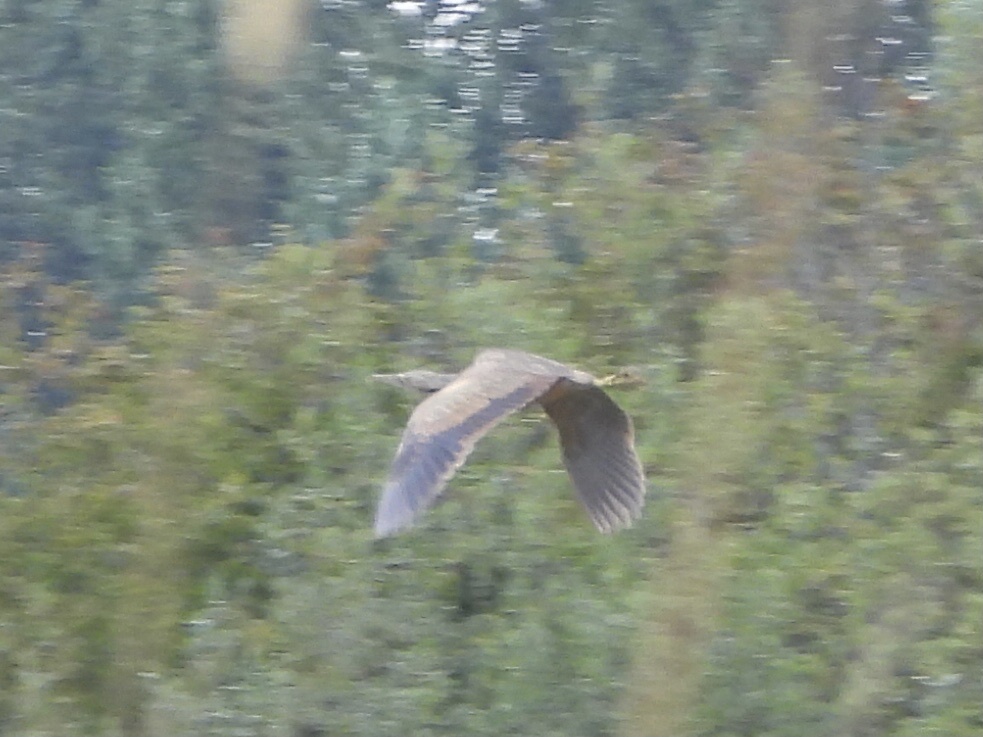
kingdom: Animalia
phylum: Chordata
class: Aves
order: Pelecaniformes
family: Ardeidae
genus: Botaurus
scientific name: Botaurus lentiginosus
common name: American bittern
